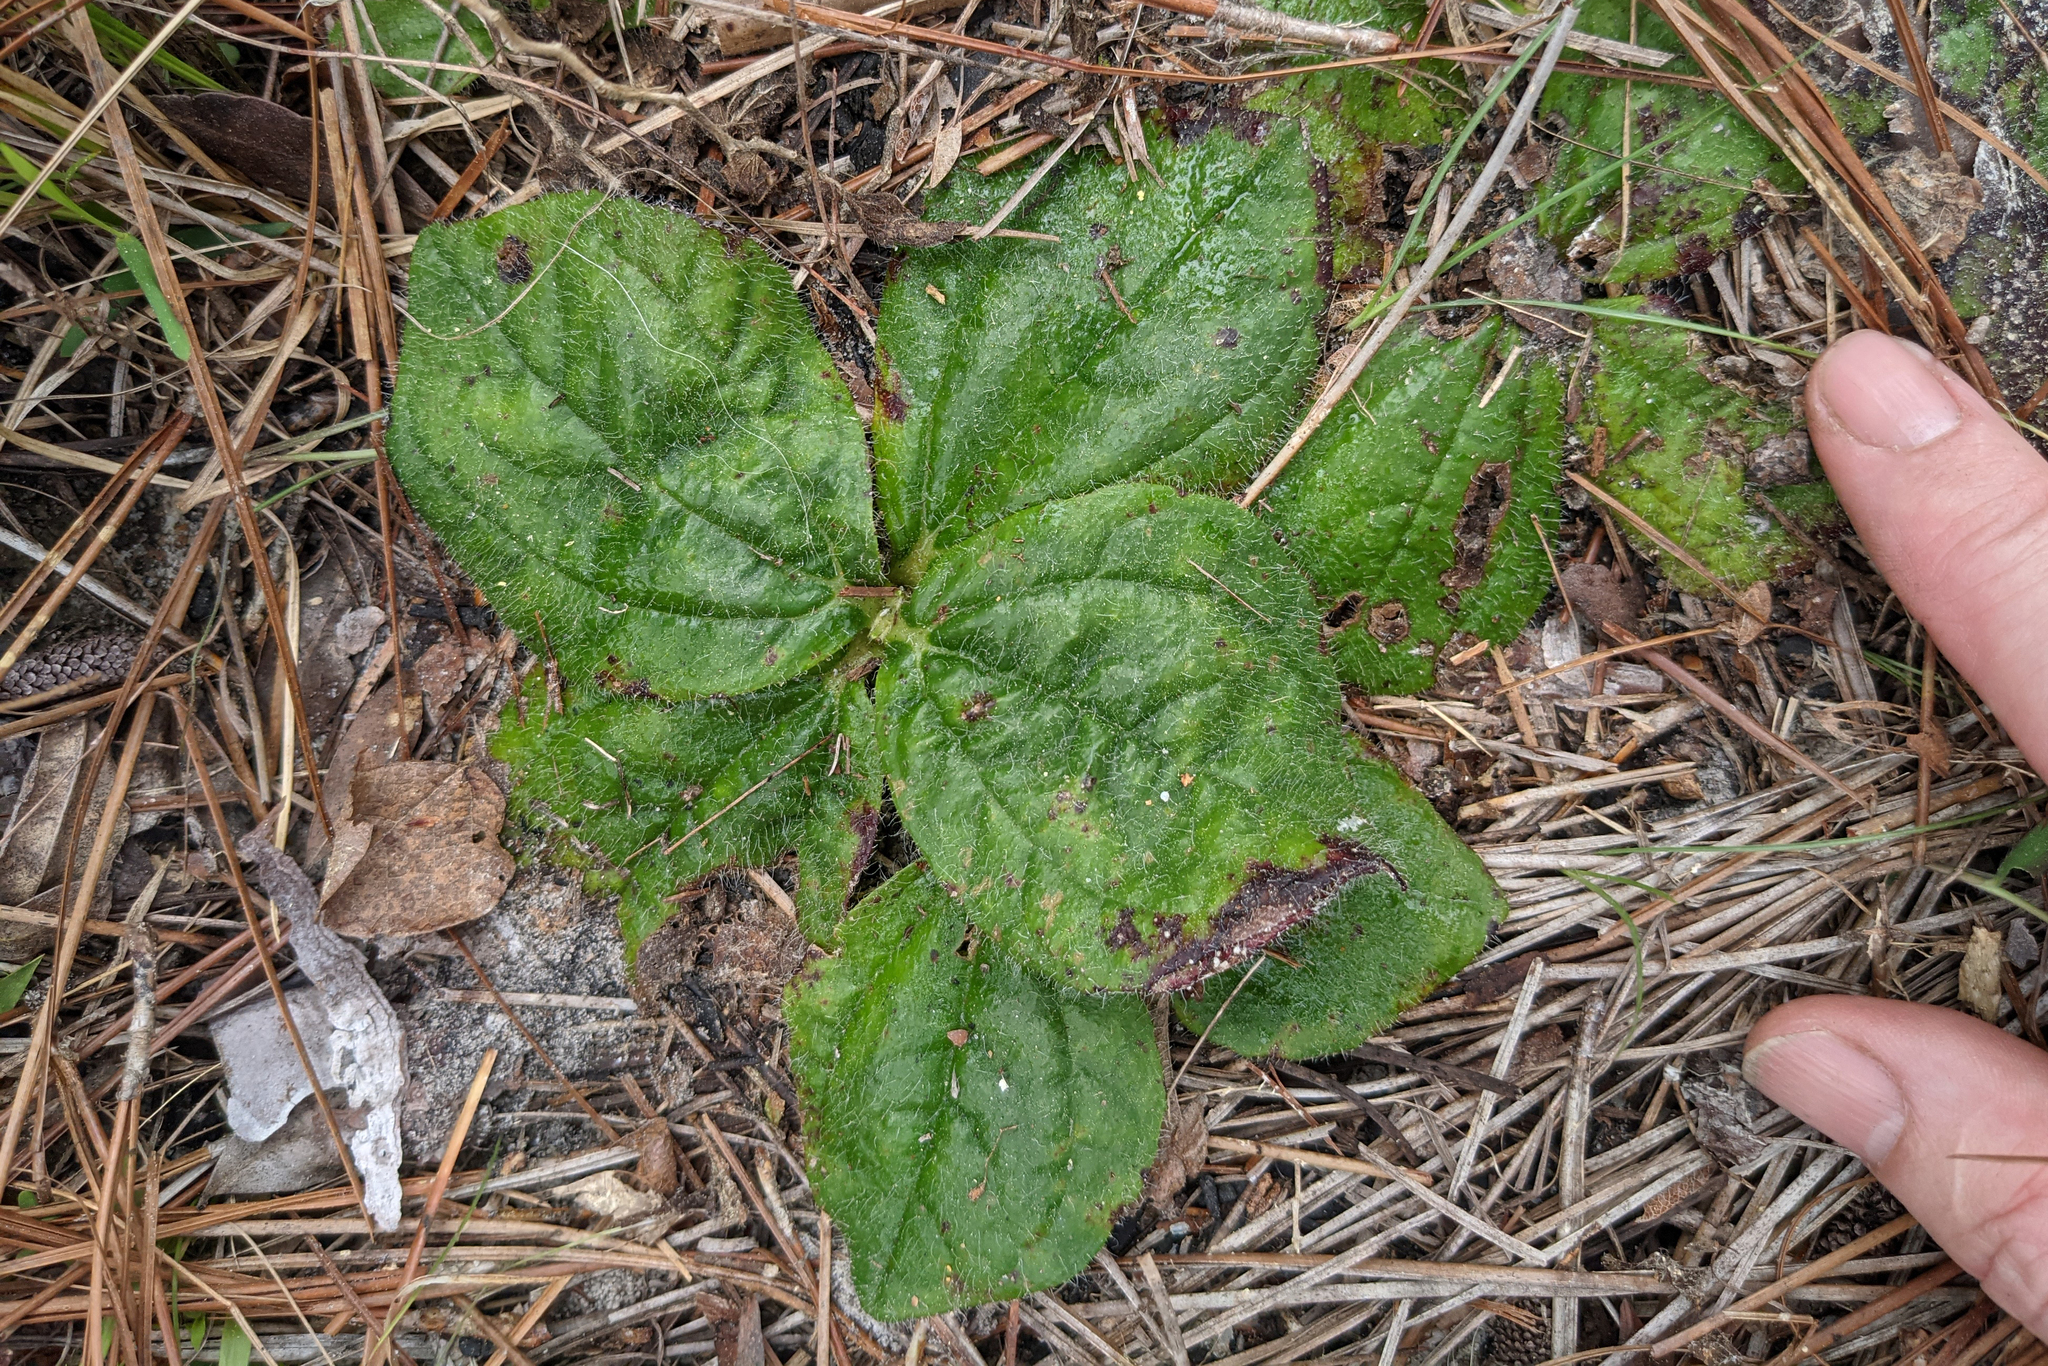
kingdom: Plantae
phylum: Tracheophyta
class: Magnoliopsida
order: Asterales
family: Asteraceae
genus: Helianthus
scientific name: Helianthus radula
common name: Pineland sunflower
